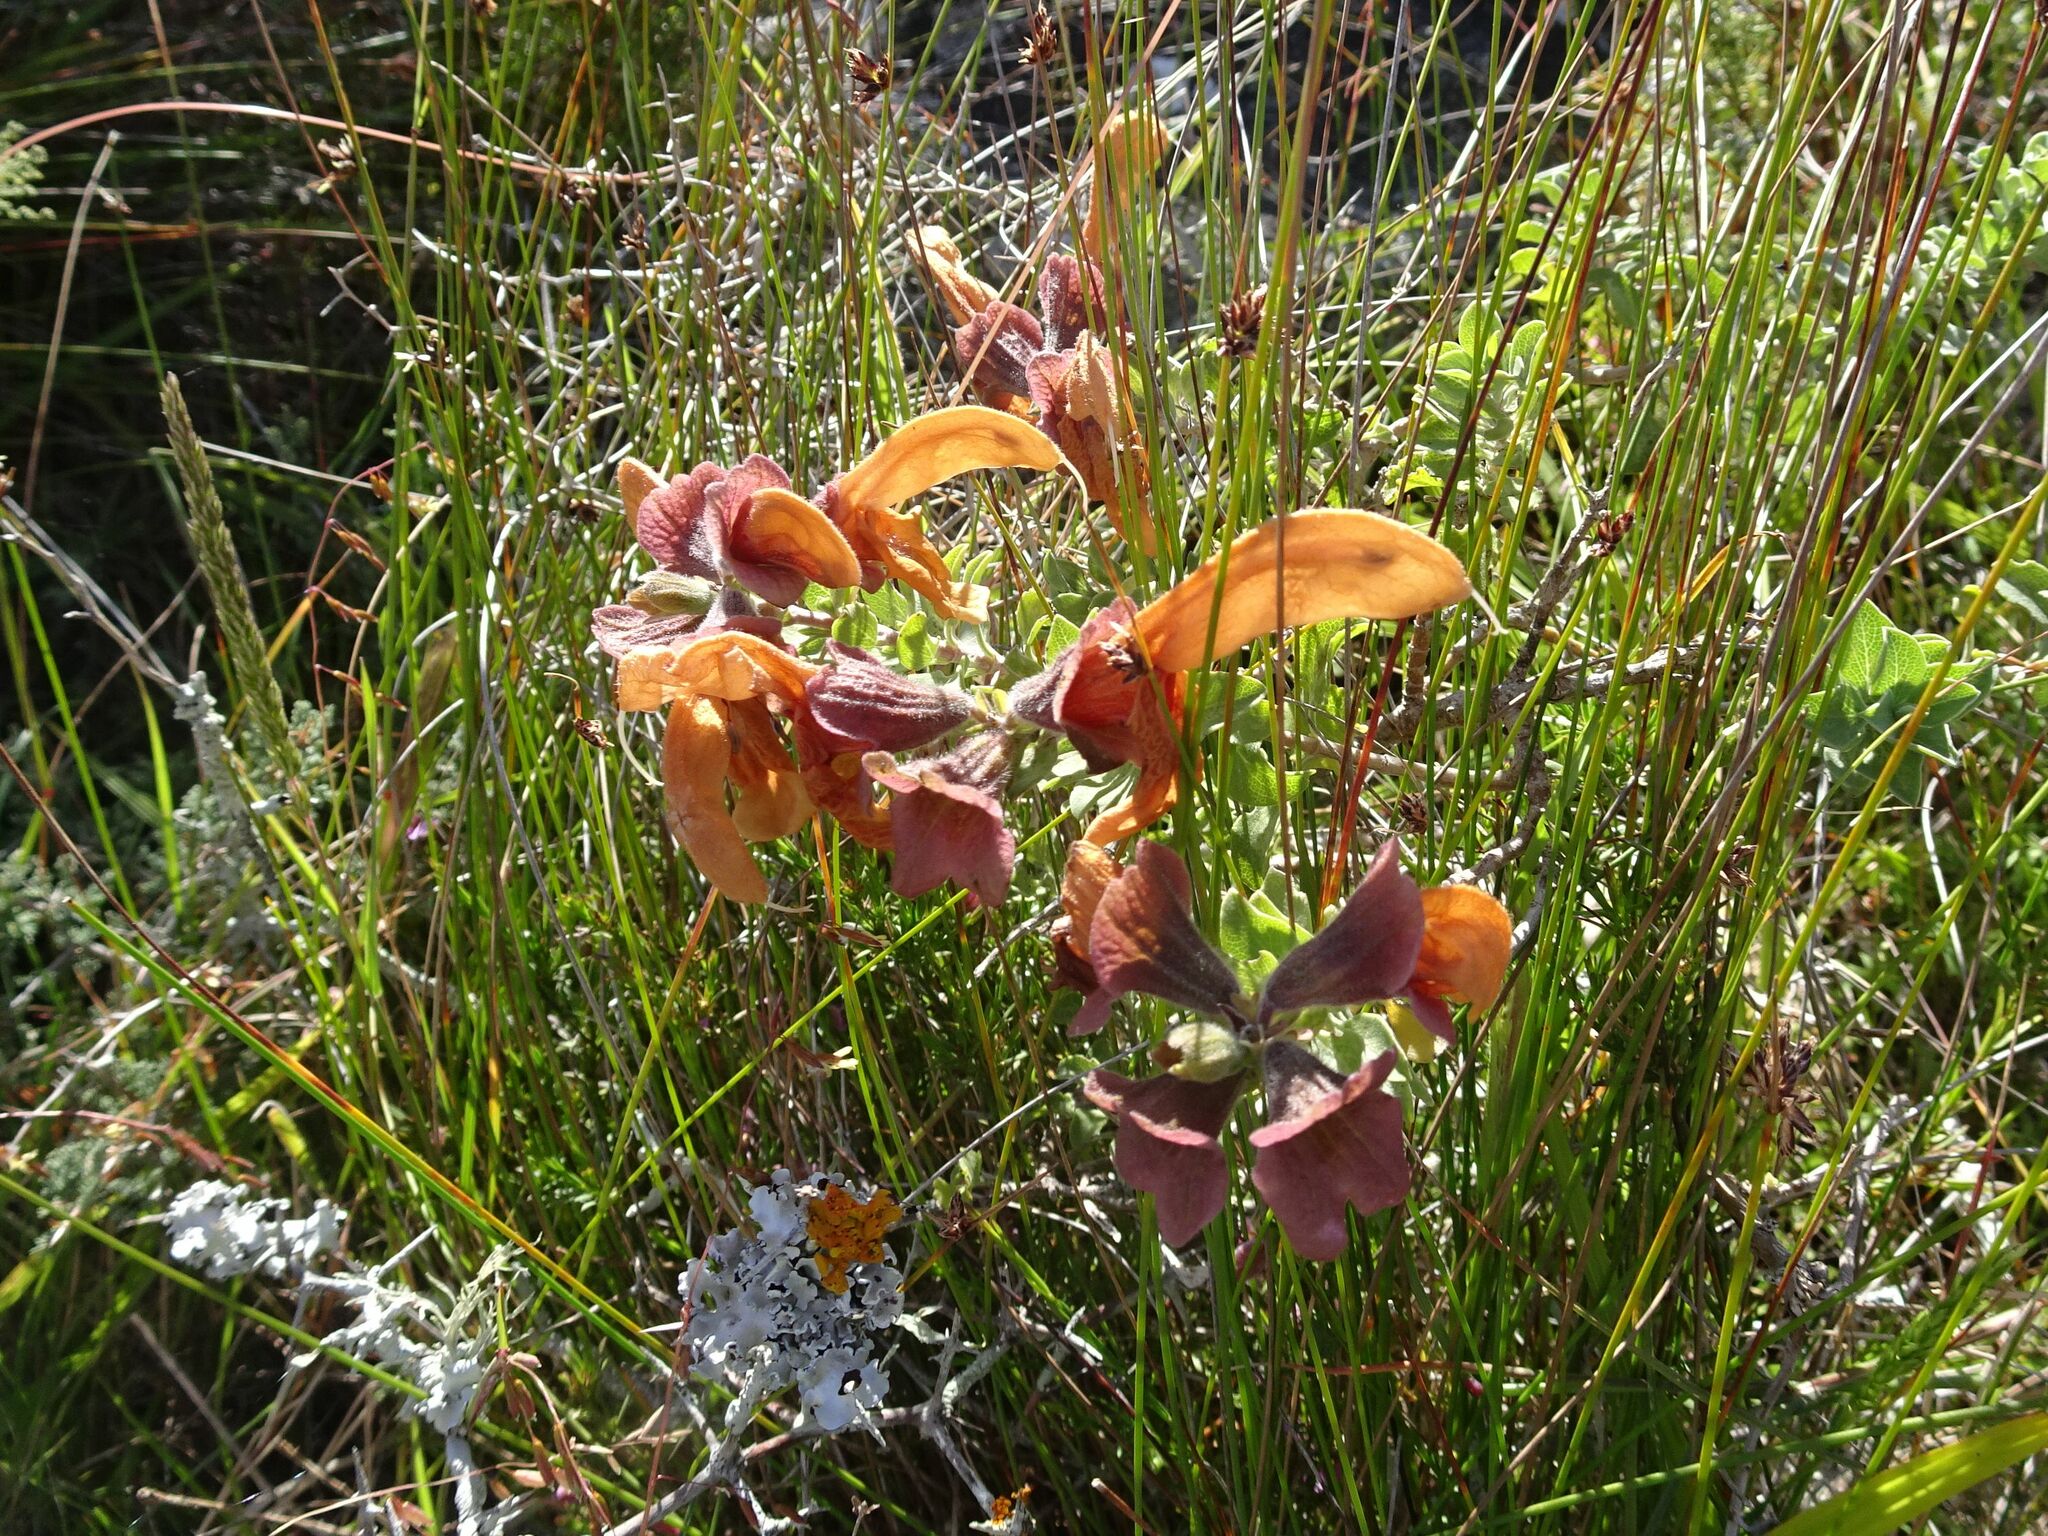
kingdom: Plantae
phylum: Tracheophyta
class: Magnoliopsida
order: Lamiales
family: Lamiaceae
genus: Salvia
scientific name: Salvia aurea
